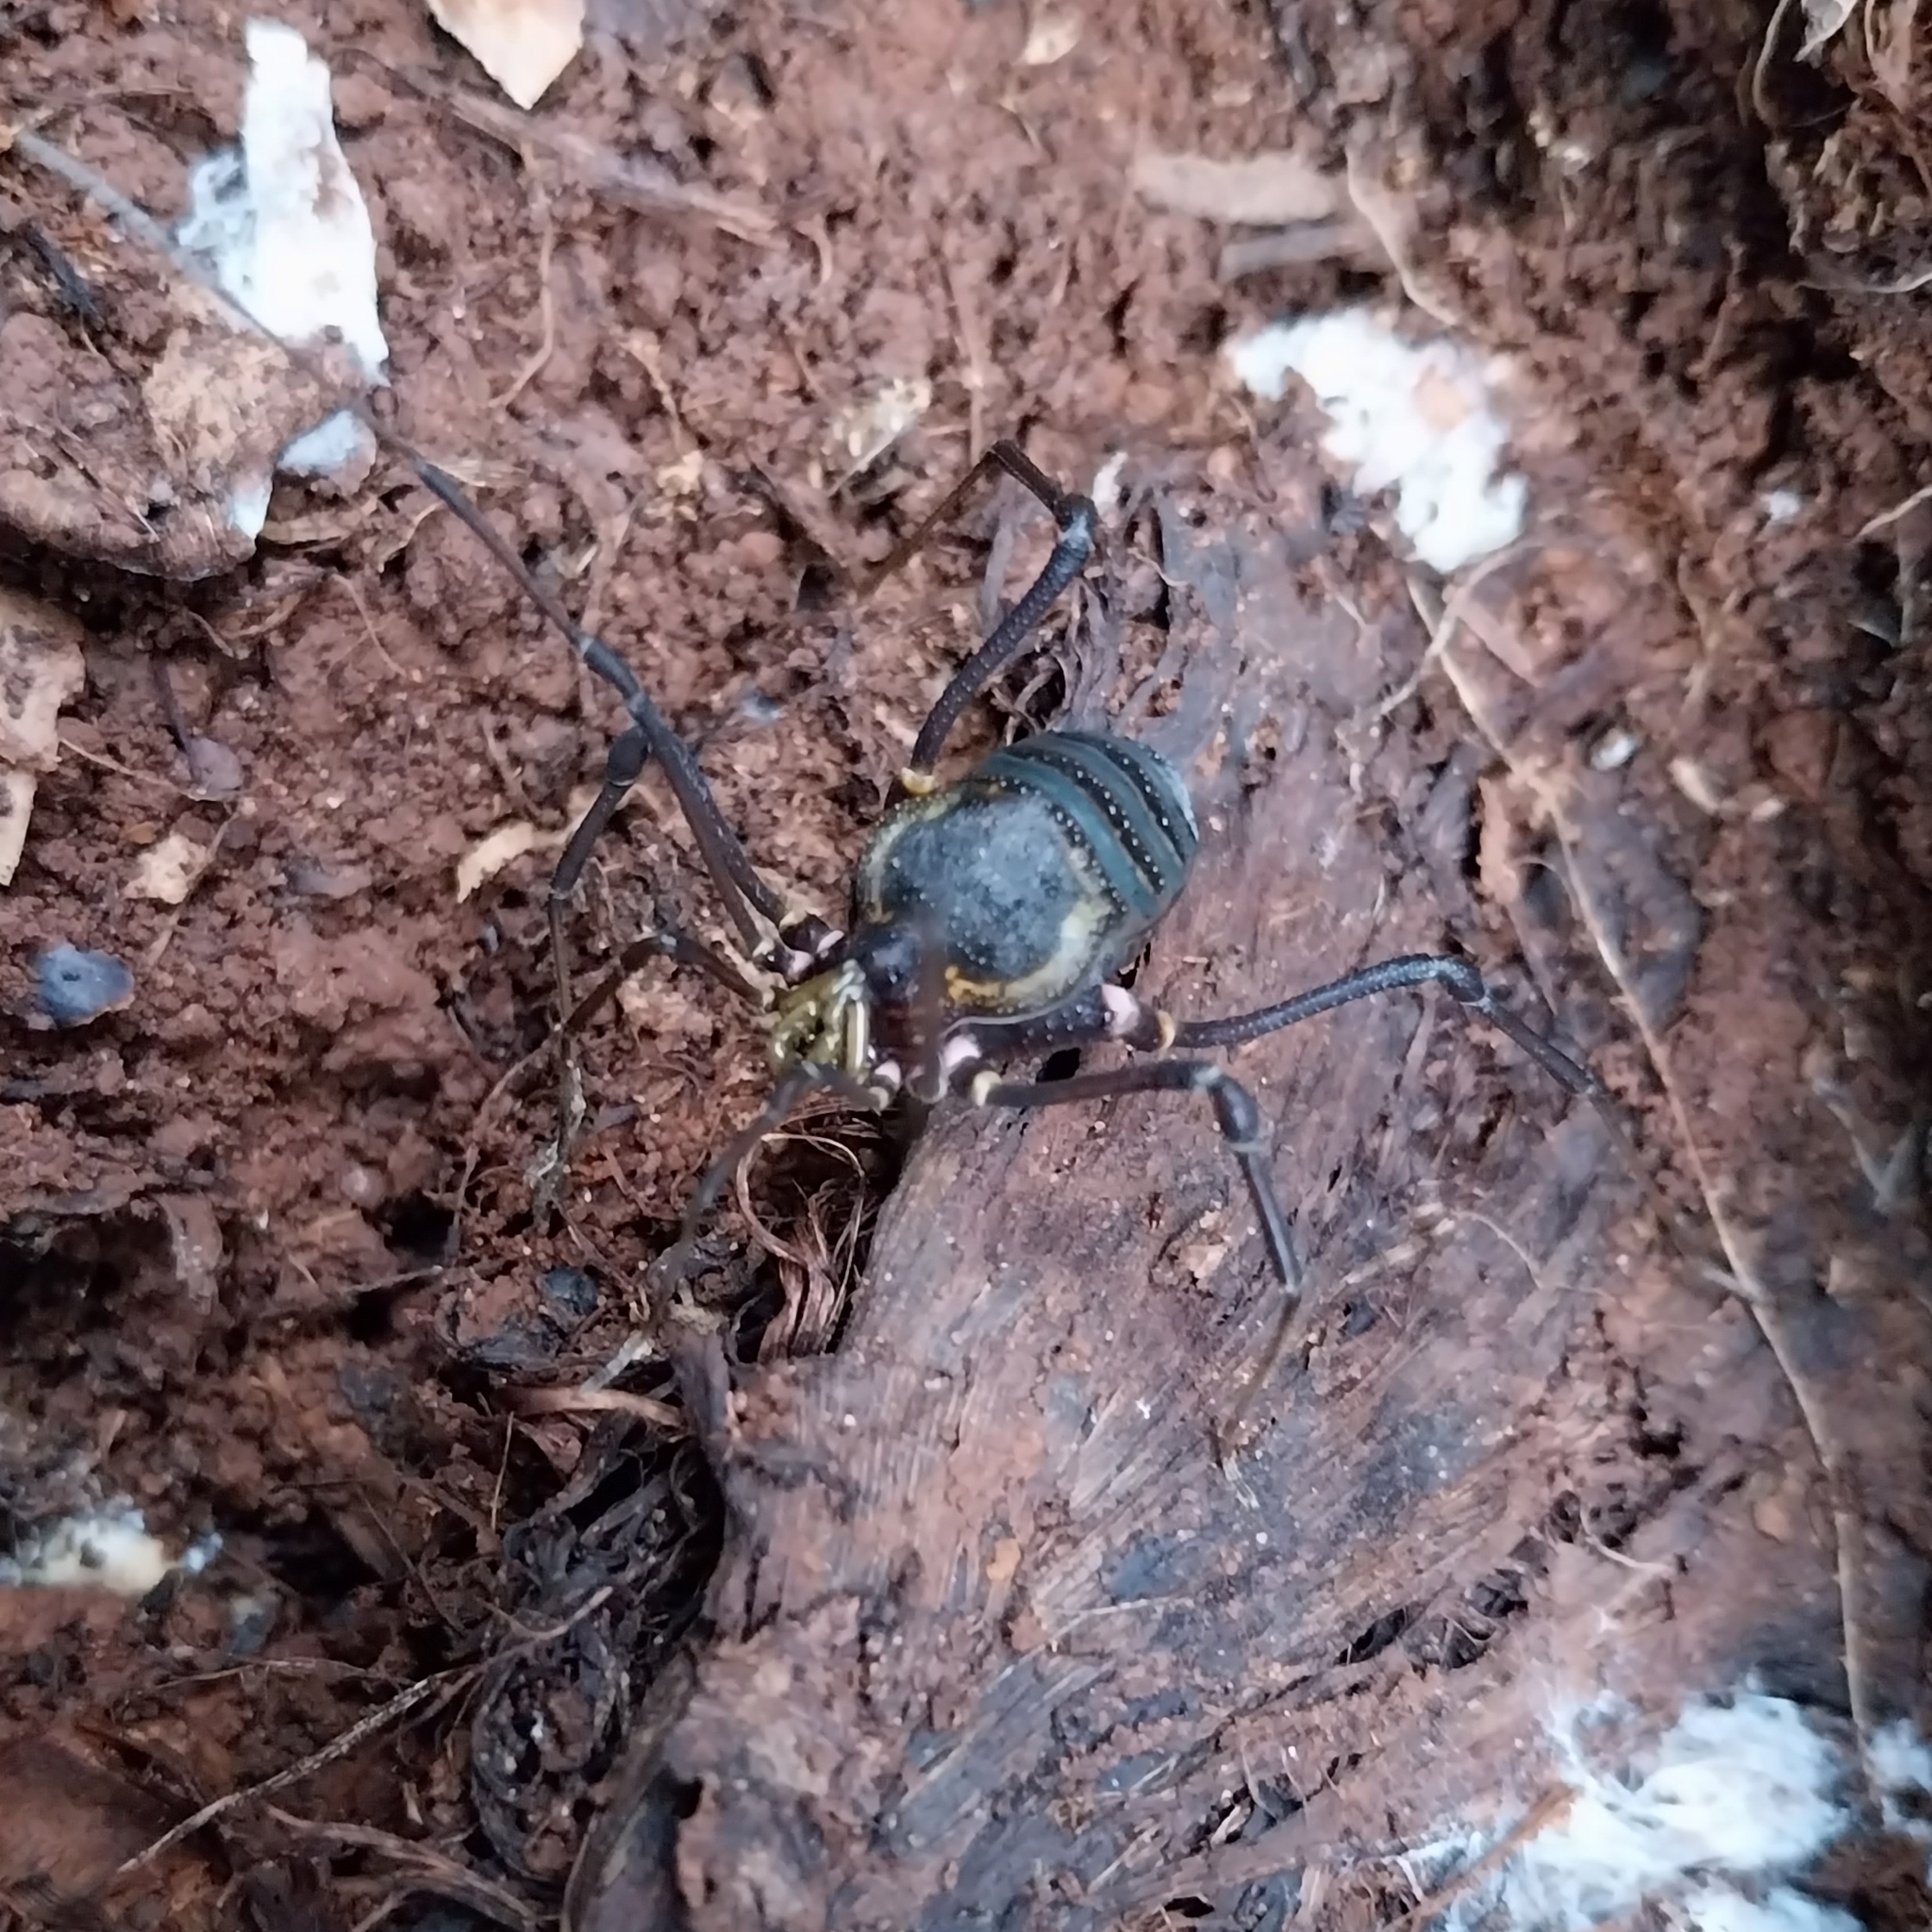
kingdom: Animalia
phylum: Arthropoda
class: Arachnida
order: Opiliones
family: Gonyleptidae
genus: Geraeocormobius
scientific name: Geraeocormobius sylvarum
